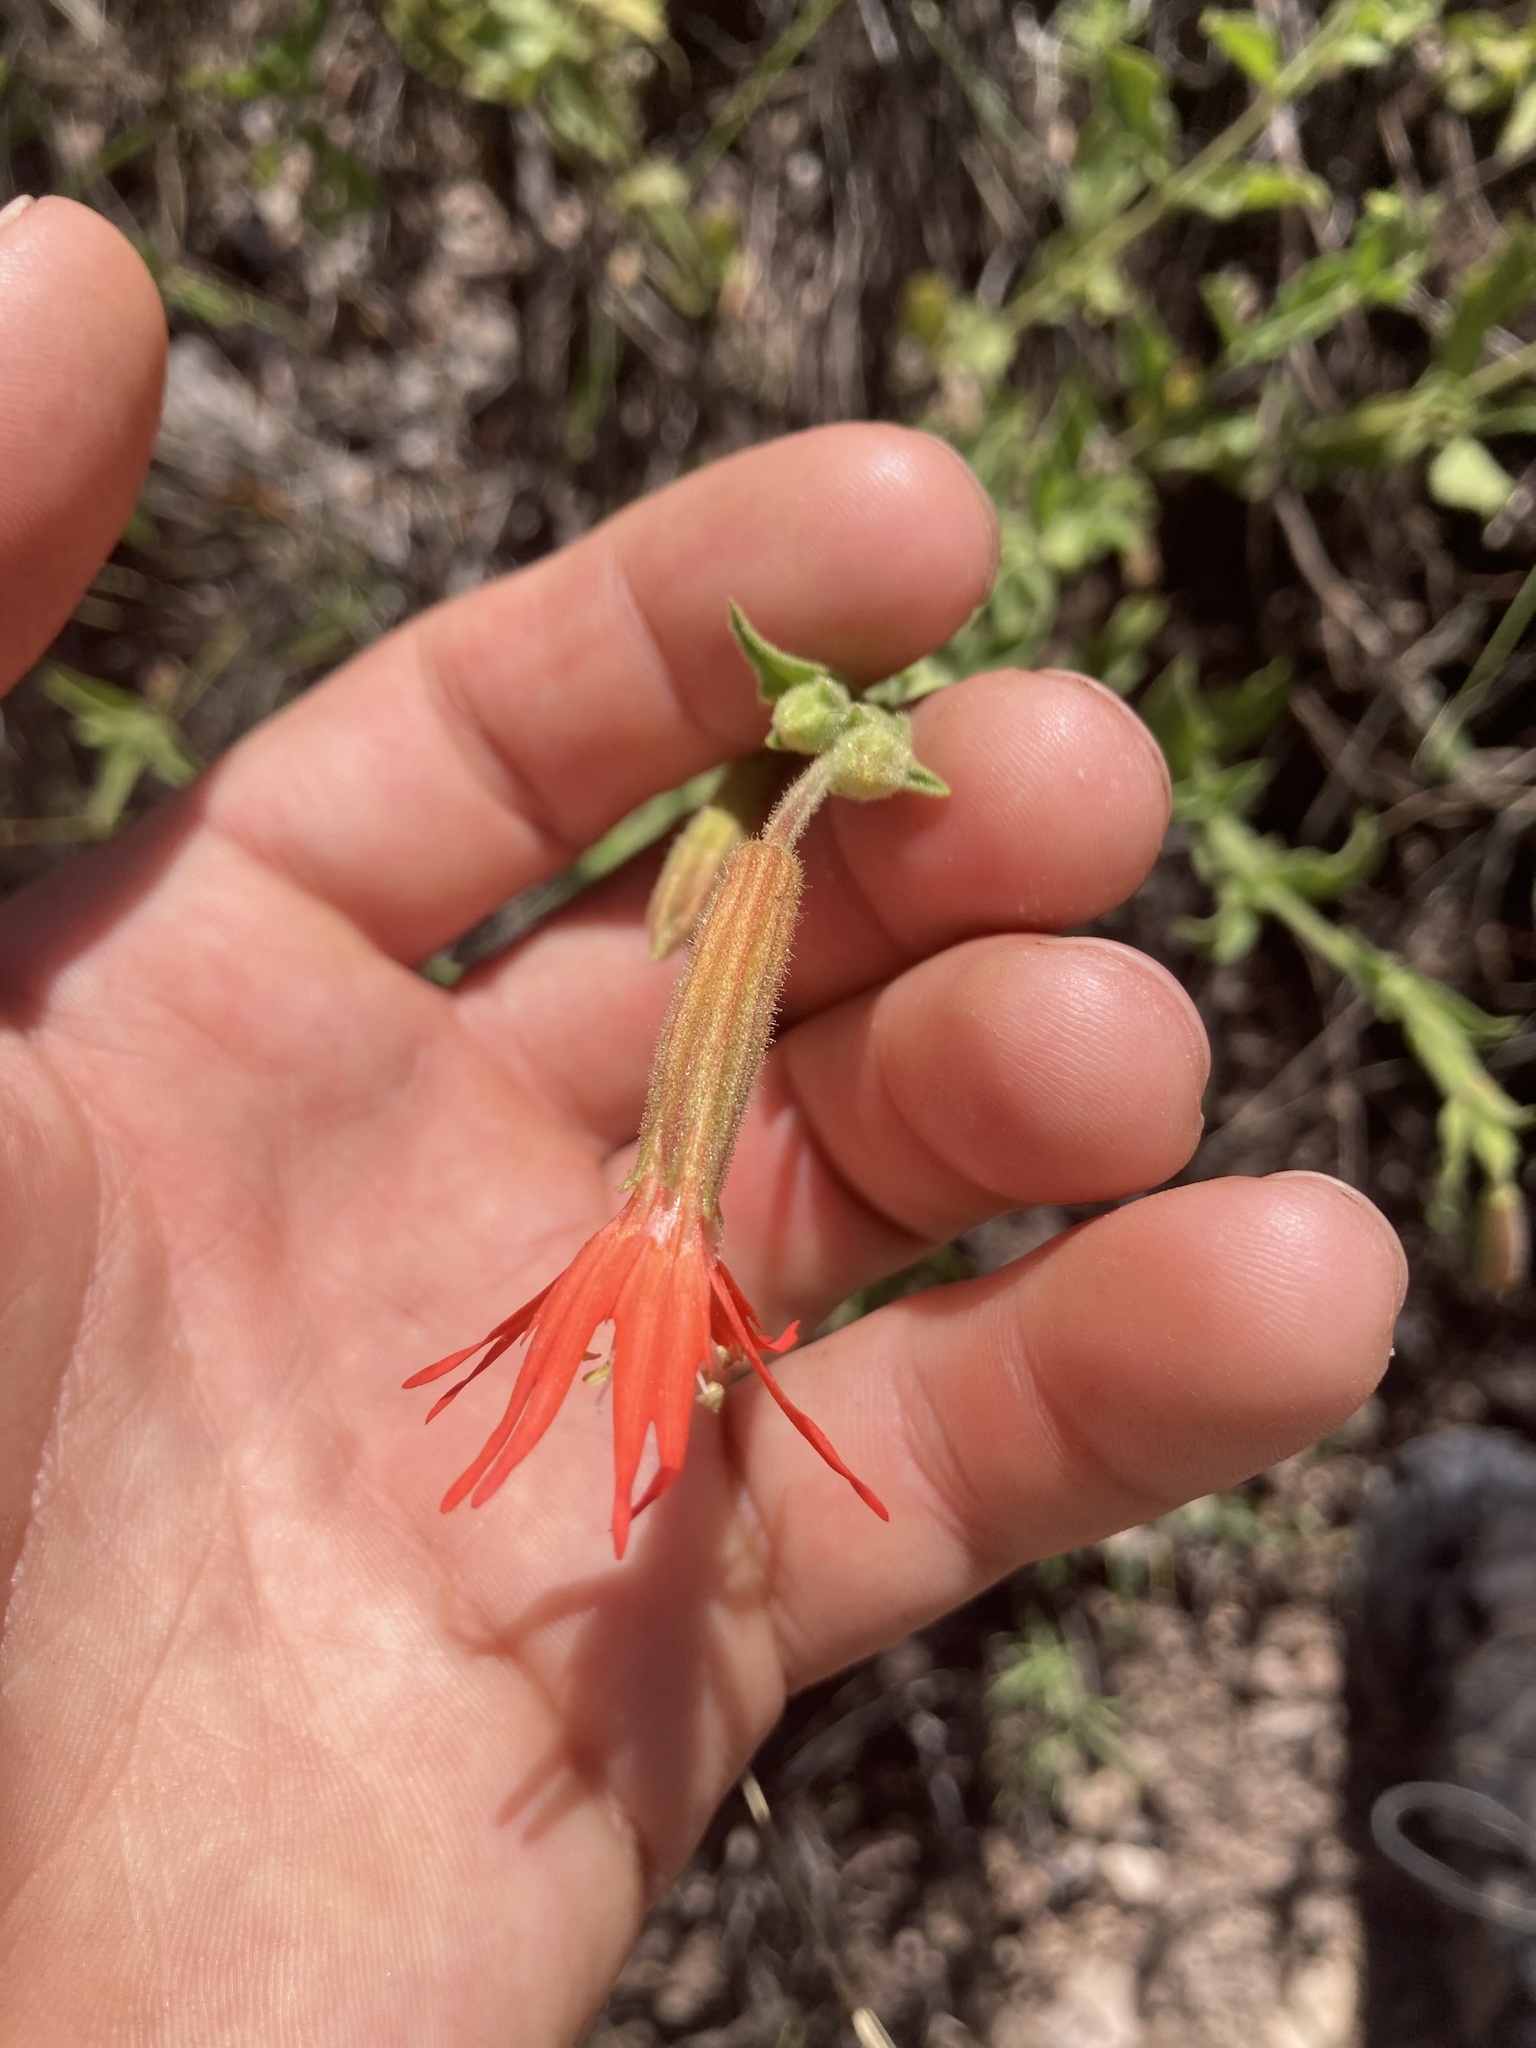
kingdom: Plantae
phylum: Tracheophyta
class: Magnoliopsida
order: Caryophyllales
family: Caryophyllaceae
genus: Silene
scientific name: Silene laciniata
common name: Indian-pink
